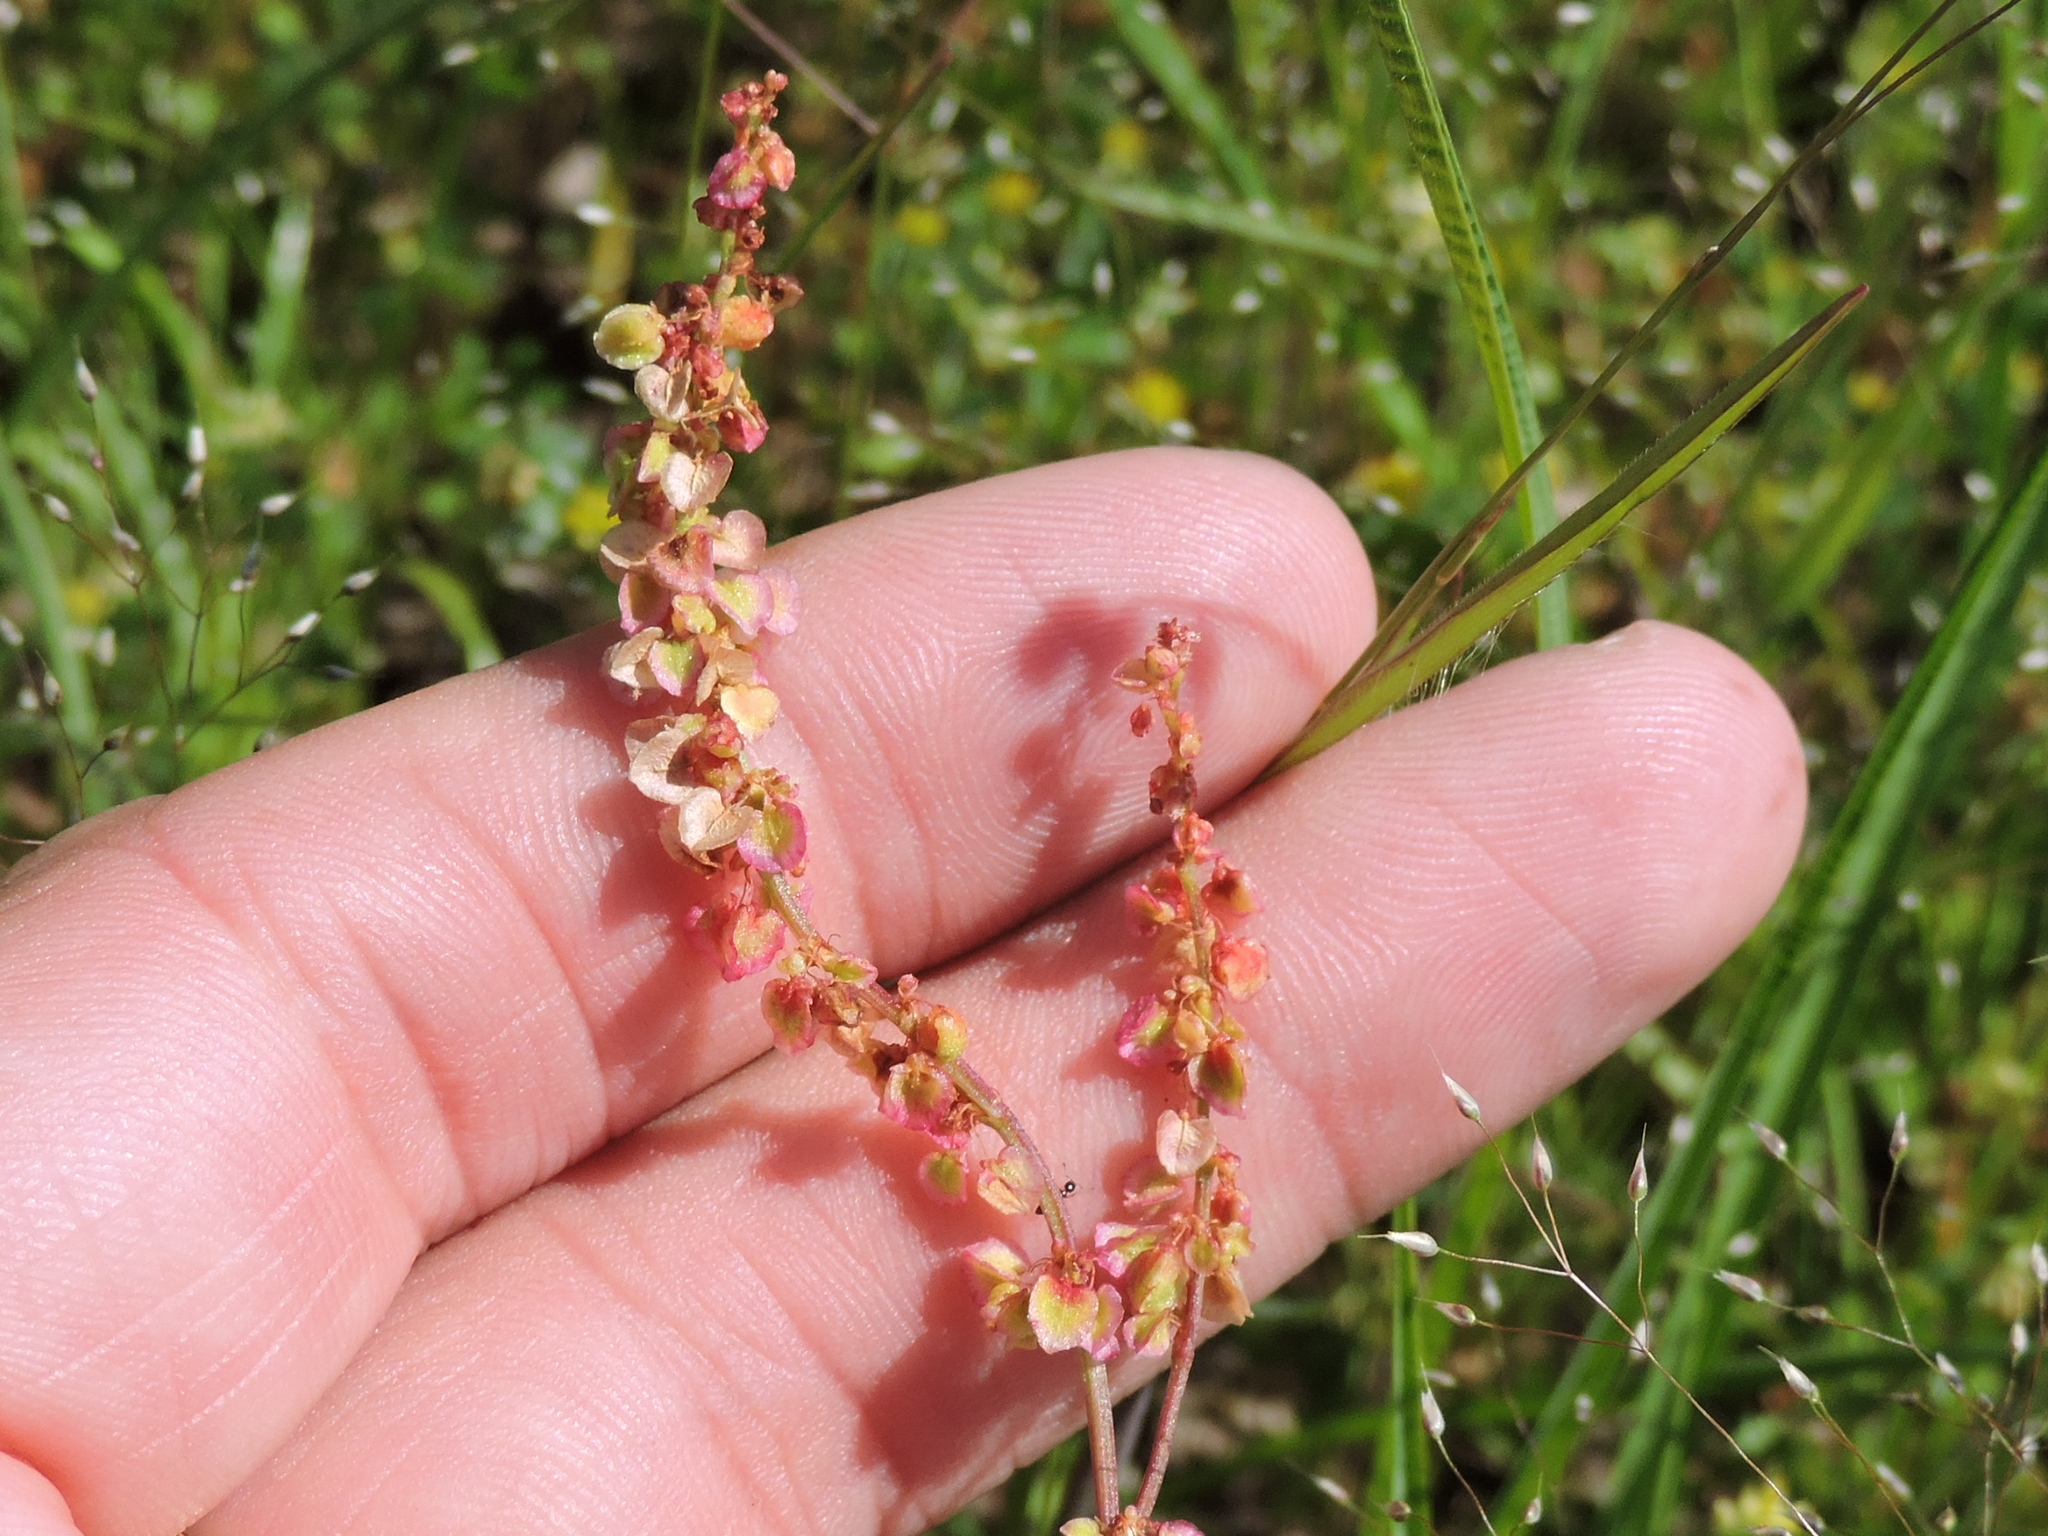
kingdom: Plantae
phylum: Tracheophyta
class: Magnoliopsida
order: Caryophyllales
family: Polygonaceae
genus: Rumex
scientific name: Rumex hastatulus
